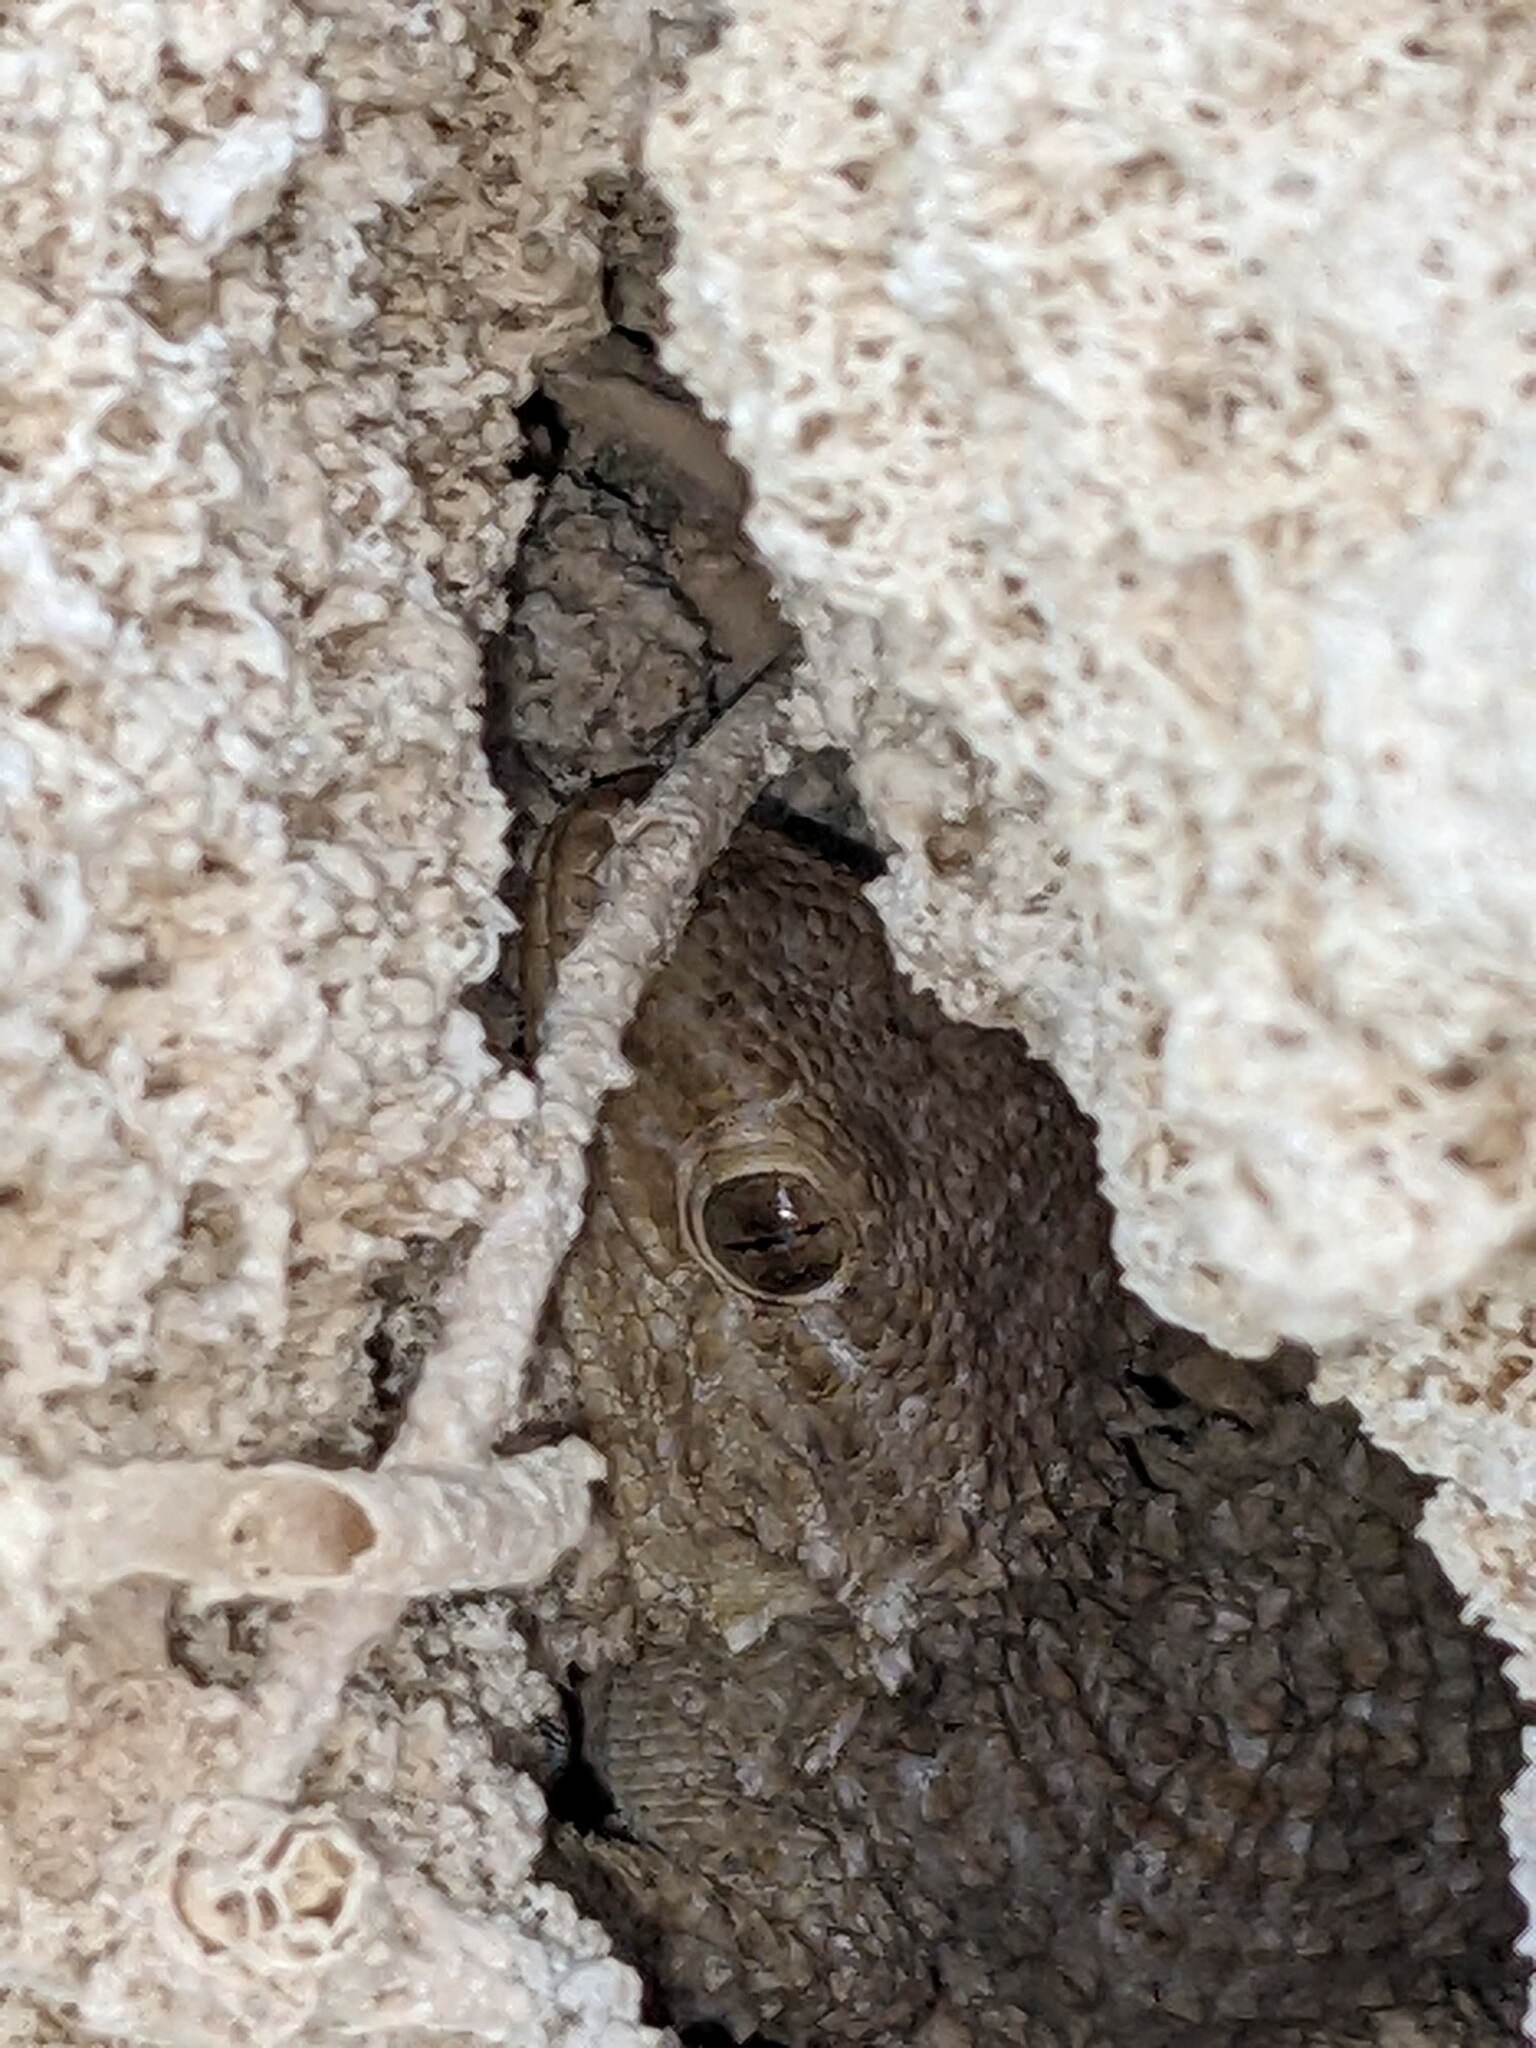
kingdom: Animalia
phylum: Chordata
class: Squamata
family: Phyllodactylidae
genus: Tarentola
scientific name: Tarentola mauritanica
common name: Moorish gecko
